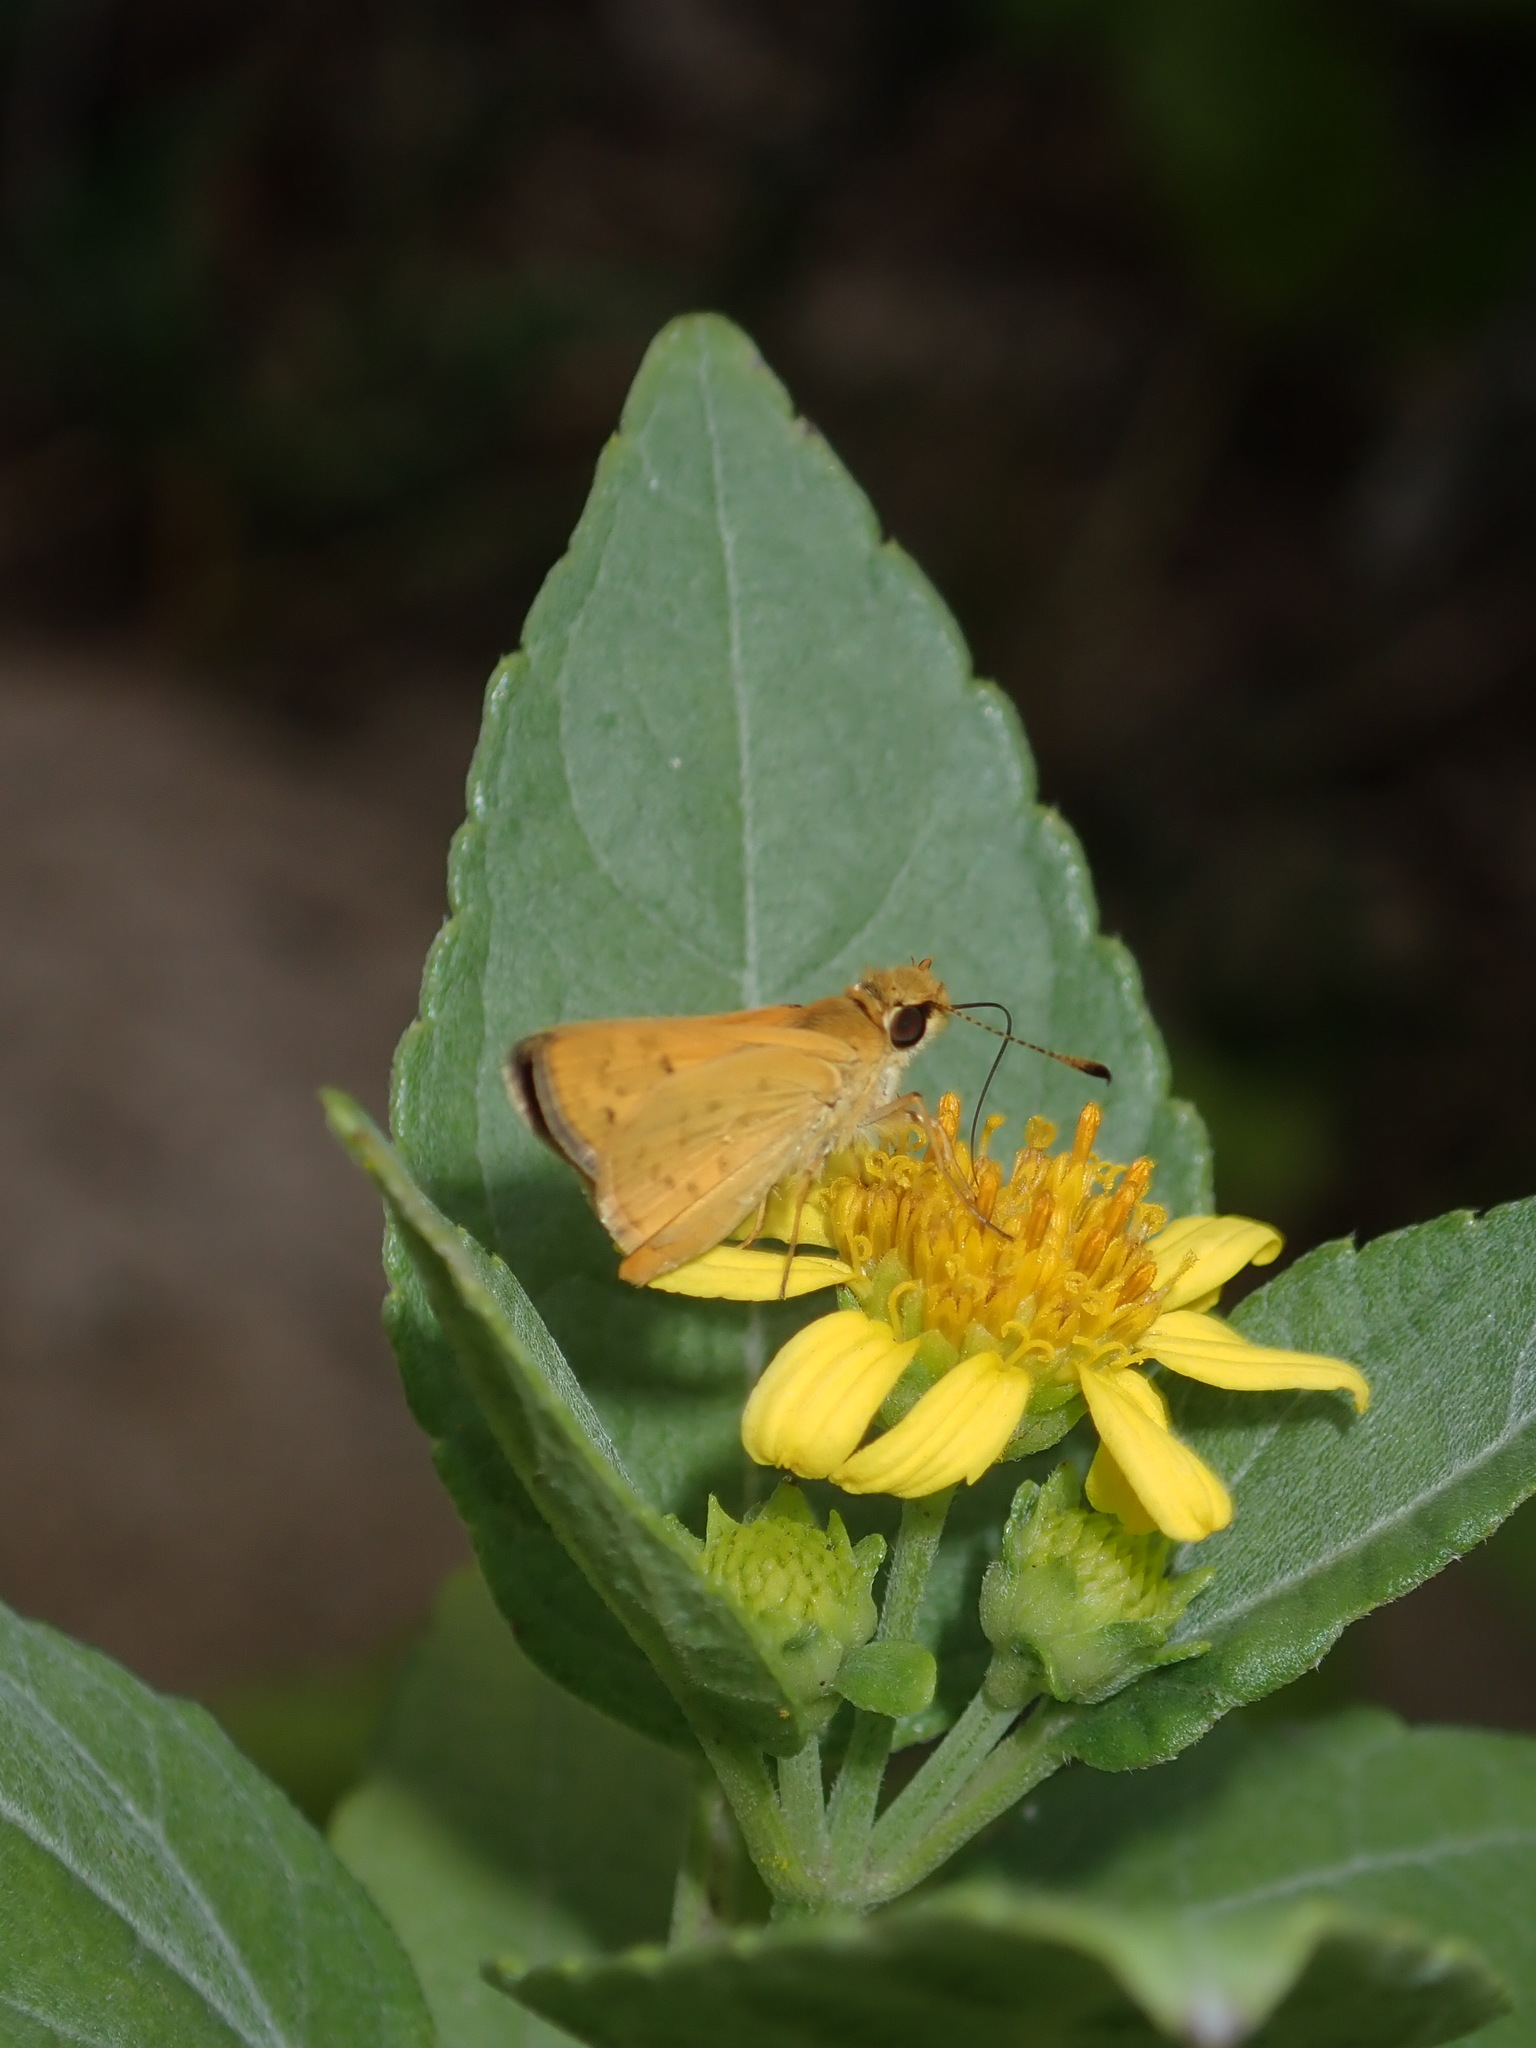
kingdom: Animalia
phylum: Arthropoda
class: Insecta
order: Lepidoptera
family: Hesperiidae
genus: Ocybadistes
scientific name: Ocybadistes walkeri
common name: Yellow-banded dart
